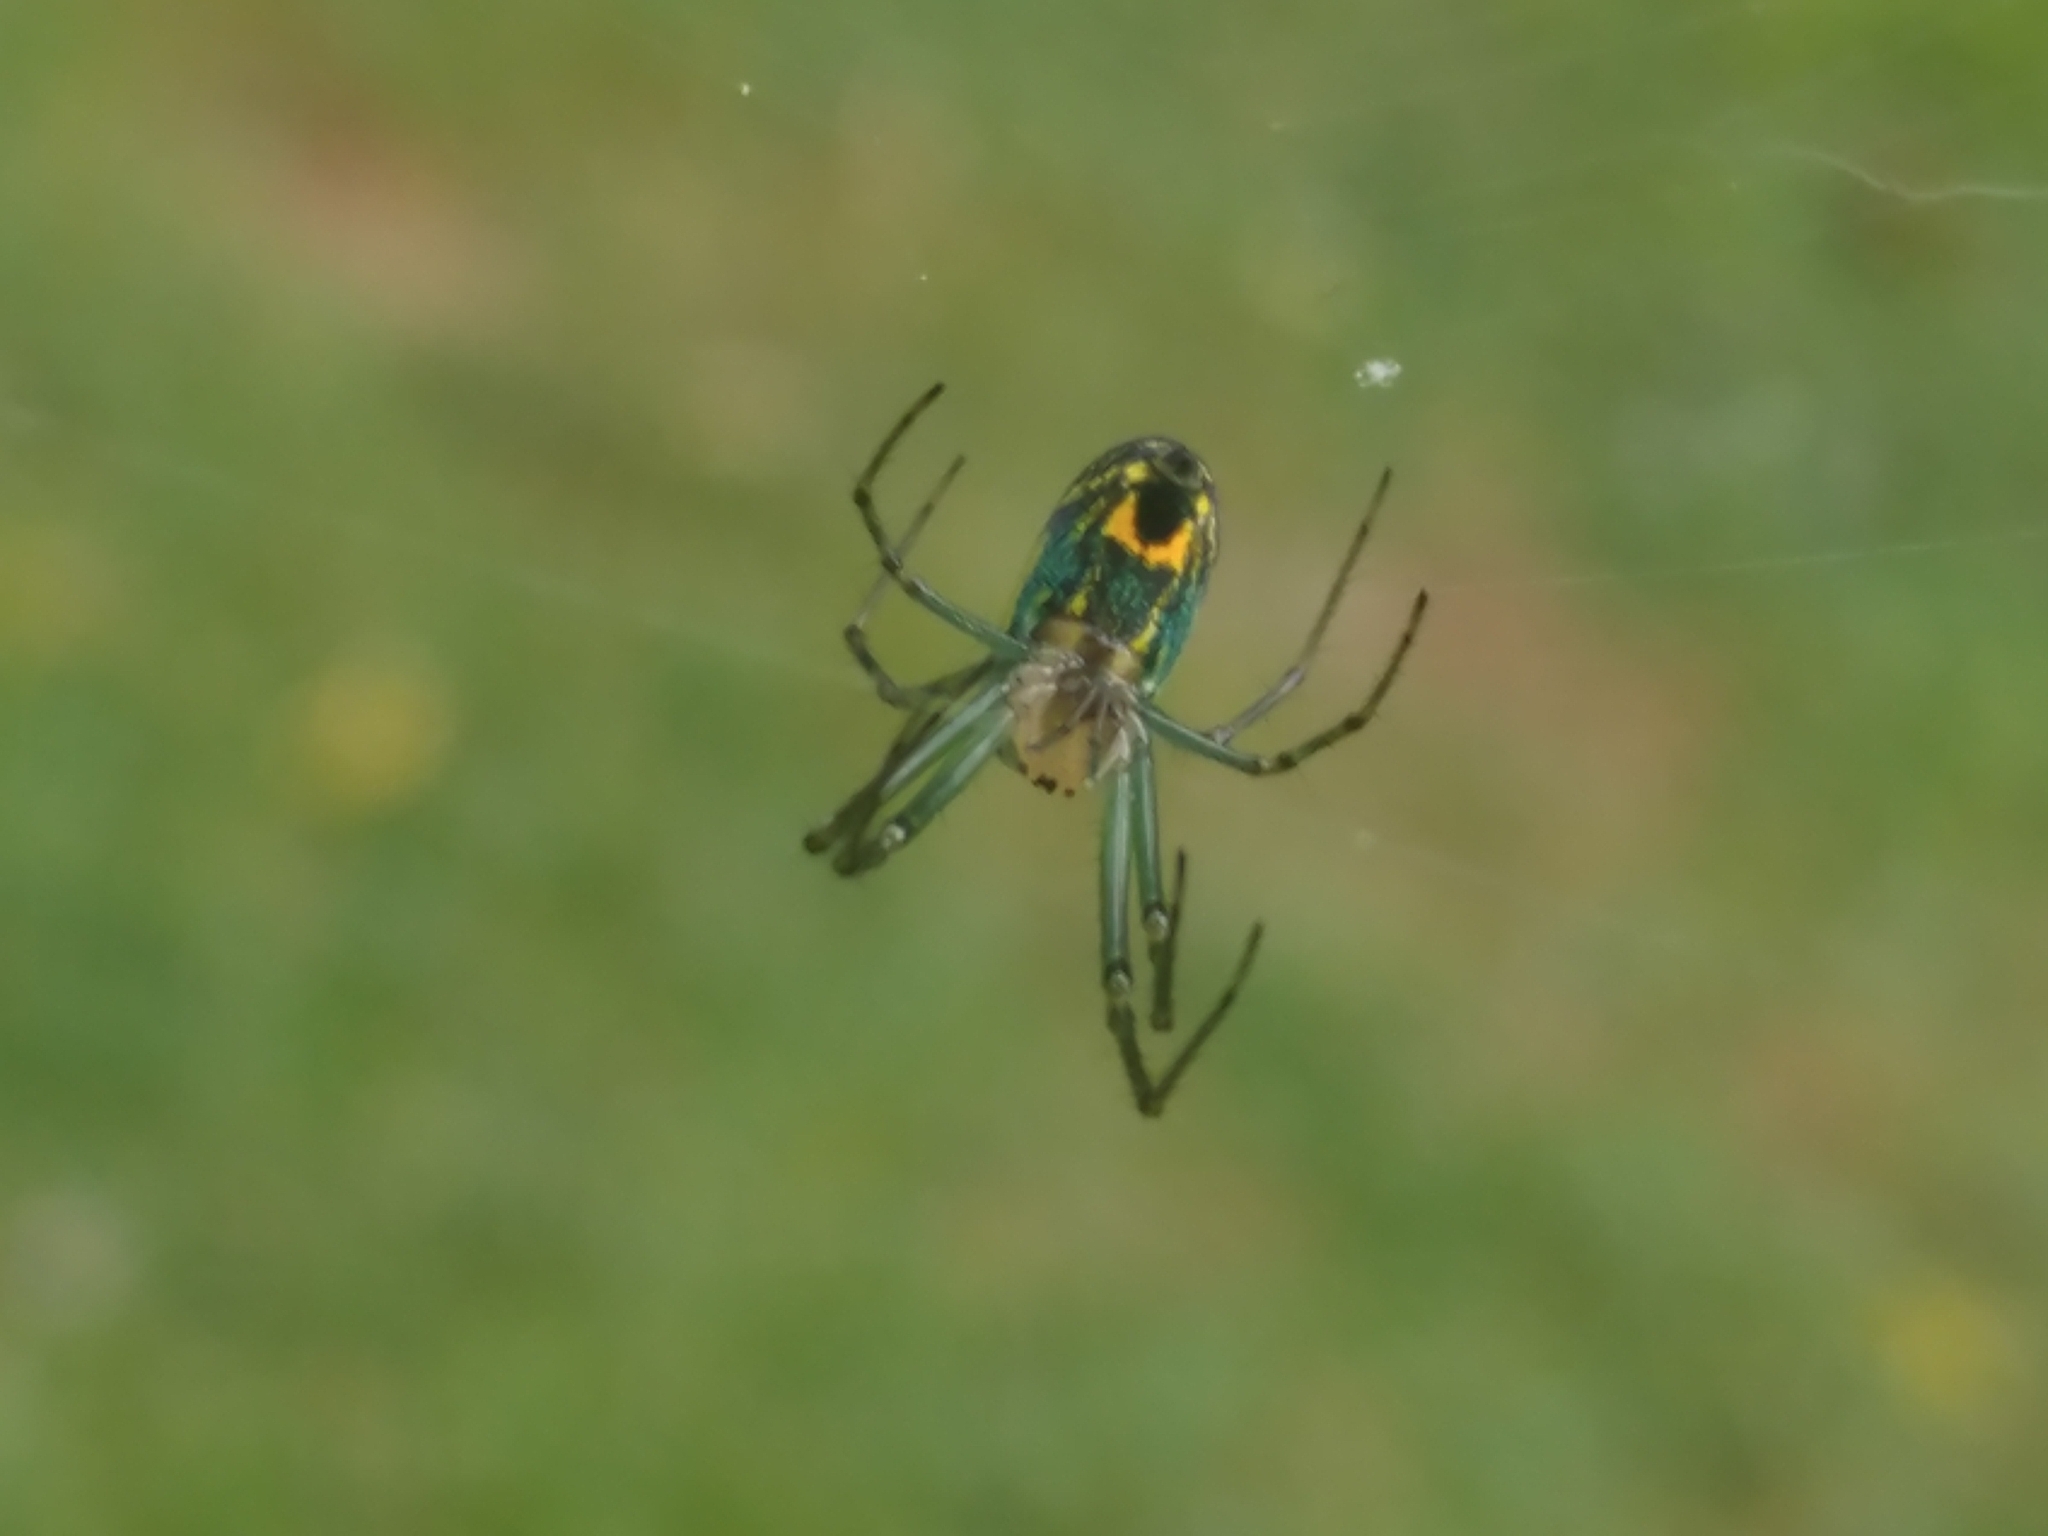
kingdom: Animalia
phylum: Arthropoda
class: Arachnida
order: Araneae
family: Tetragnathidae
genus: Leucauge
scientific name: Leucauge venusta
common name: Longjawed orb weavers
